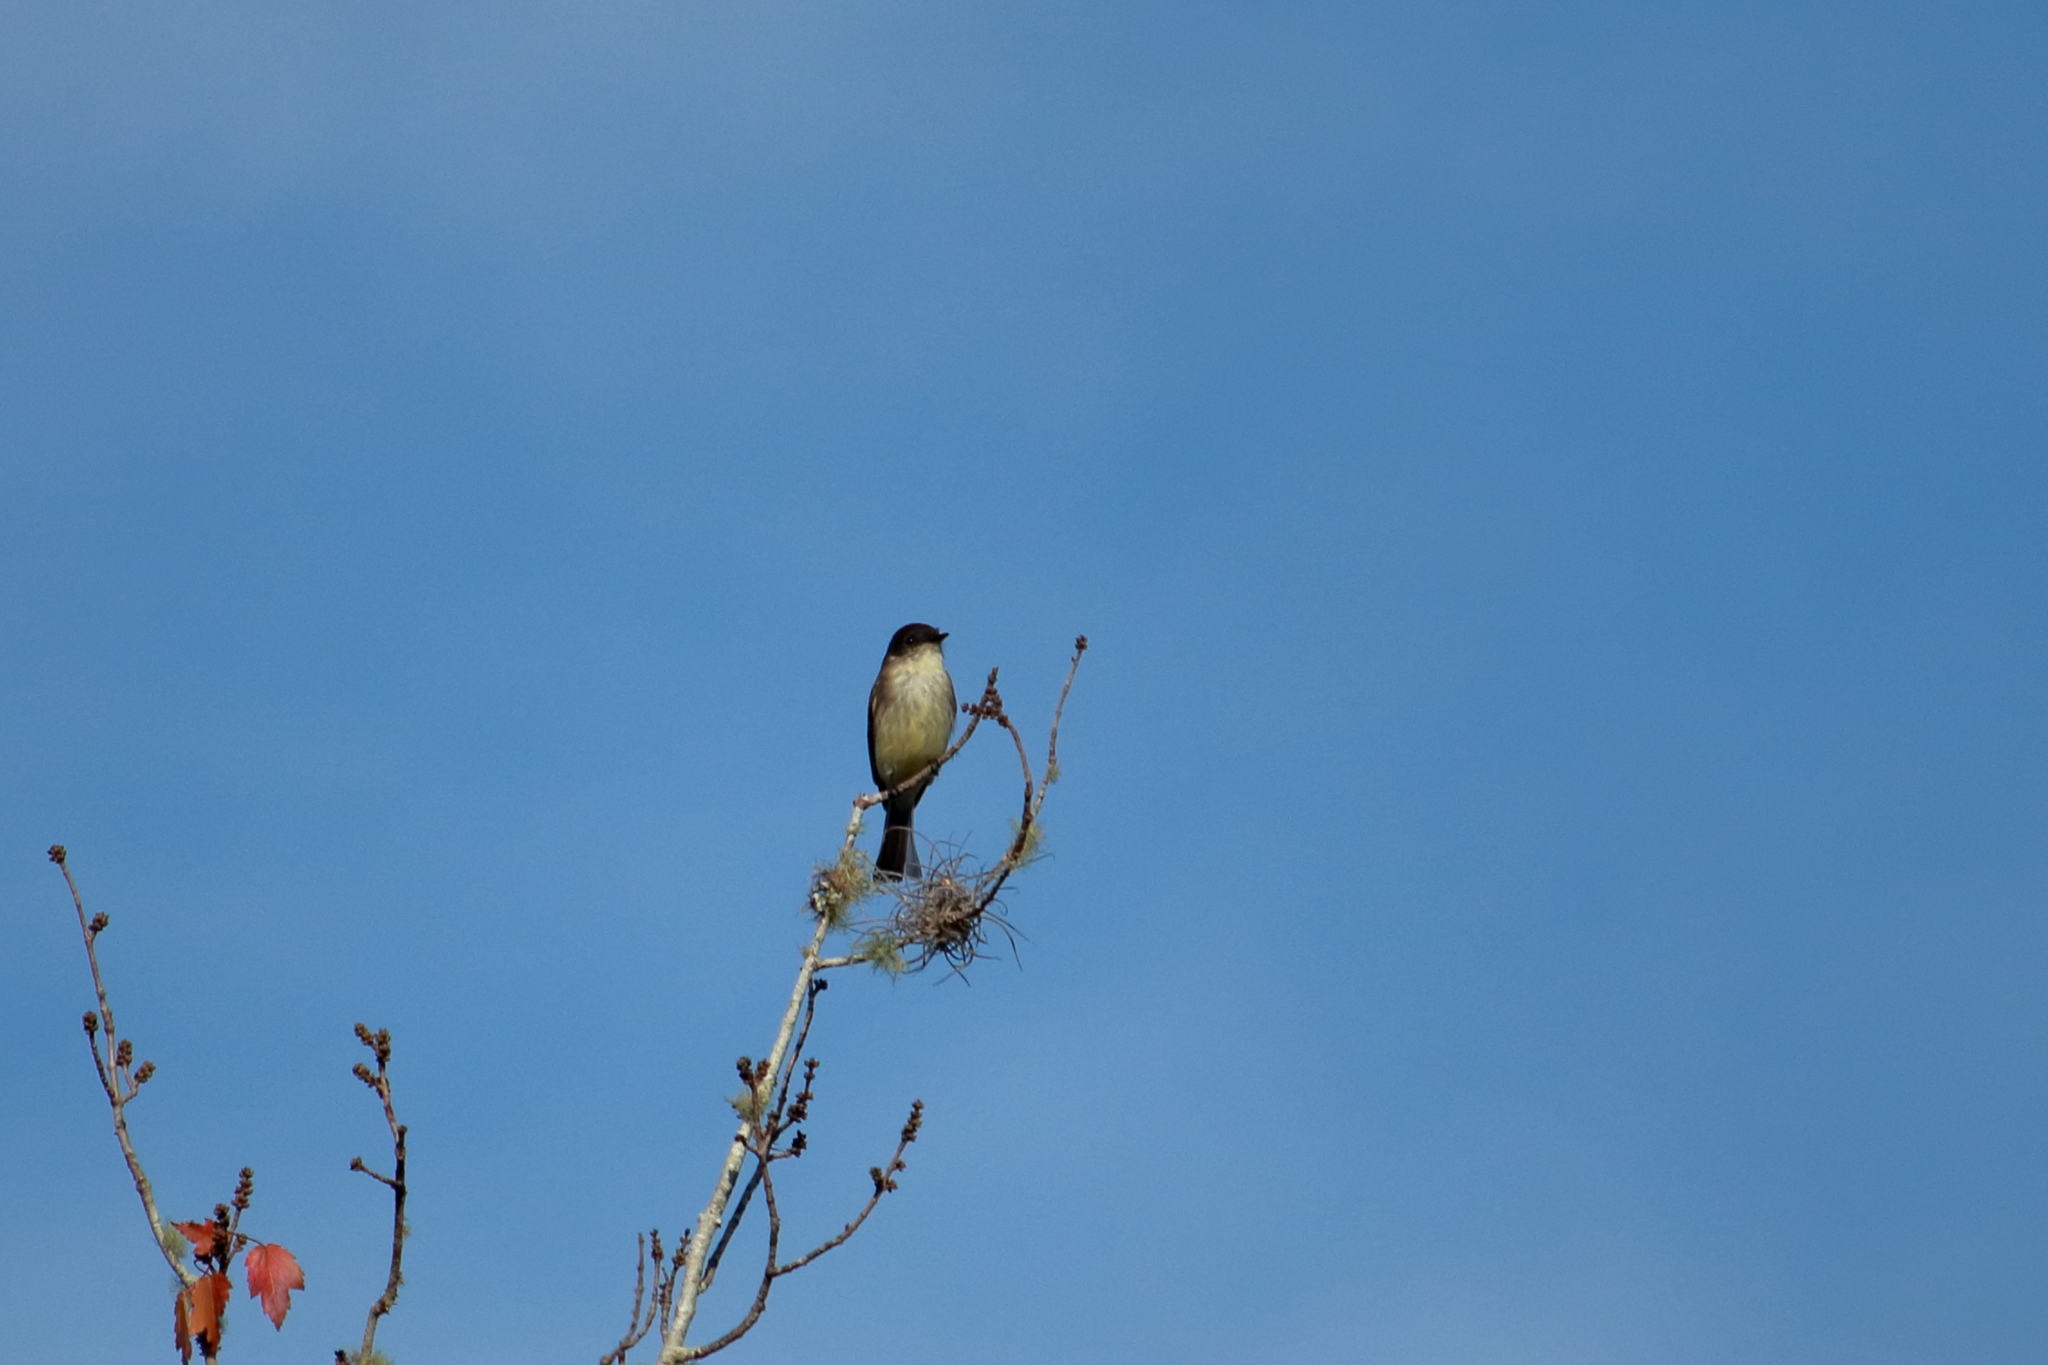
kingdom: Animalia
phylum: Chordata
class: Aves
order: Passeriformes
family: Tyrannidae
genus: Sayornis
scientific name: Sayornis phoebe
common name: Eastern phoebe
